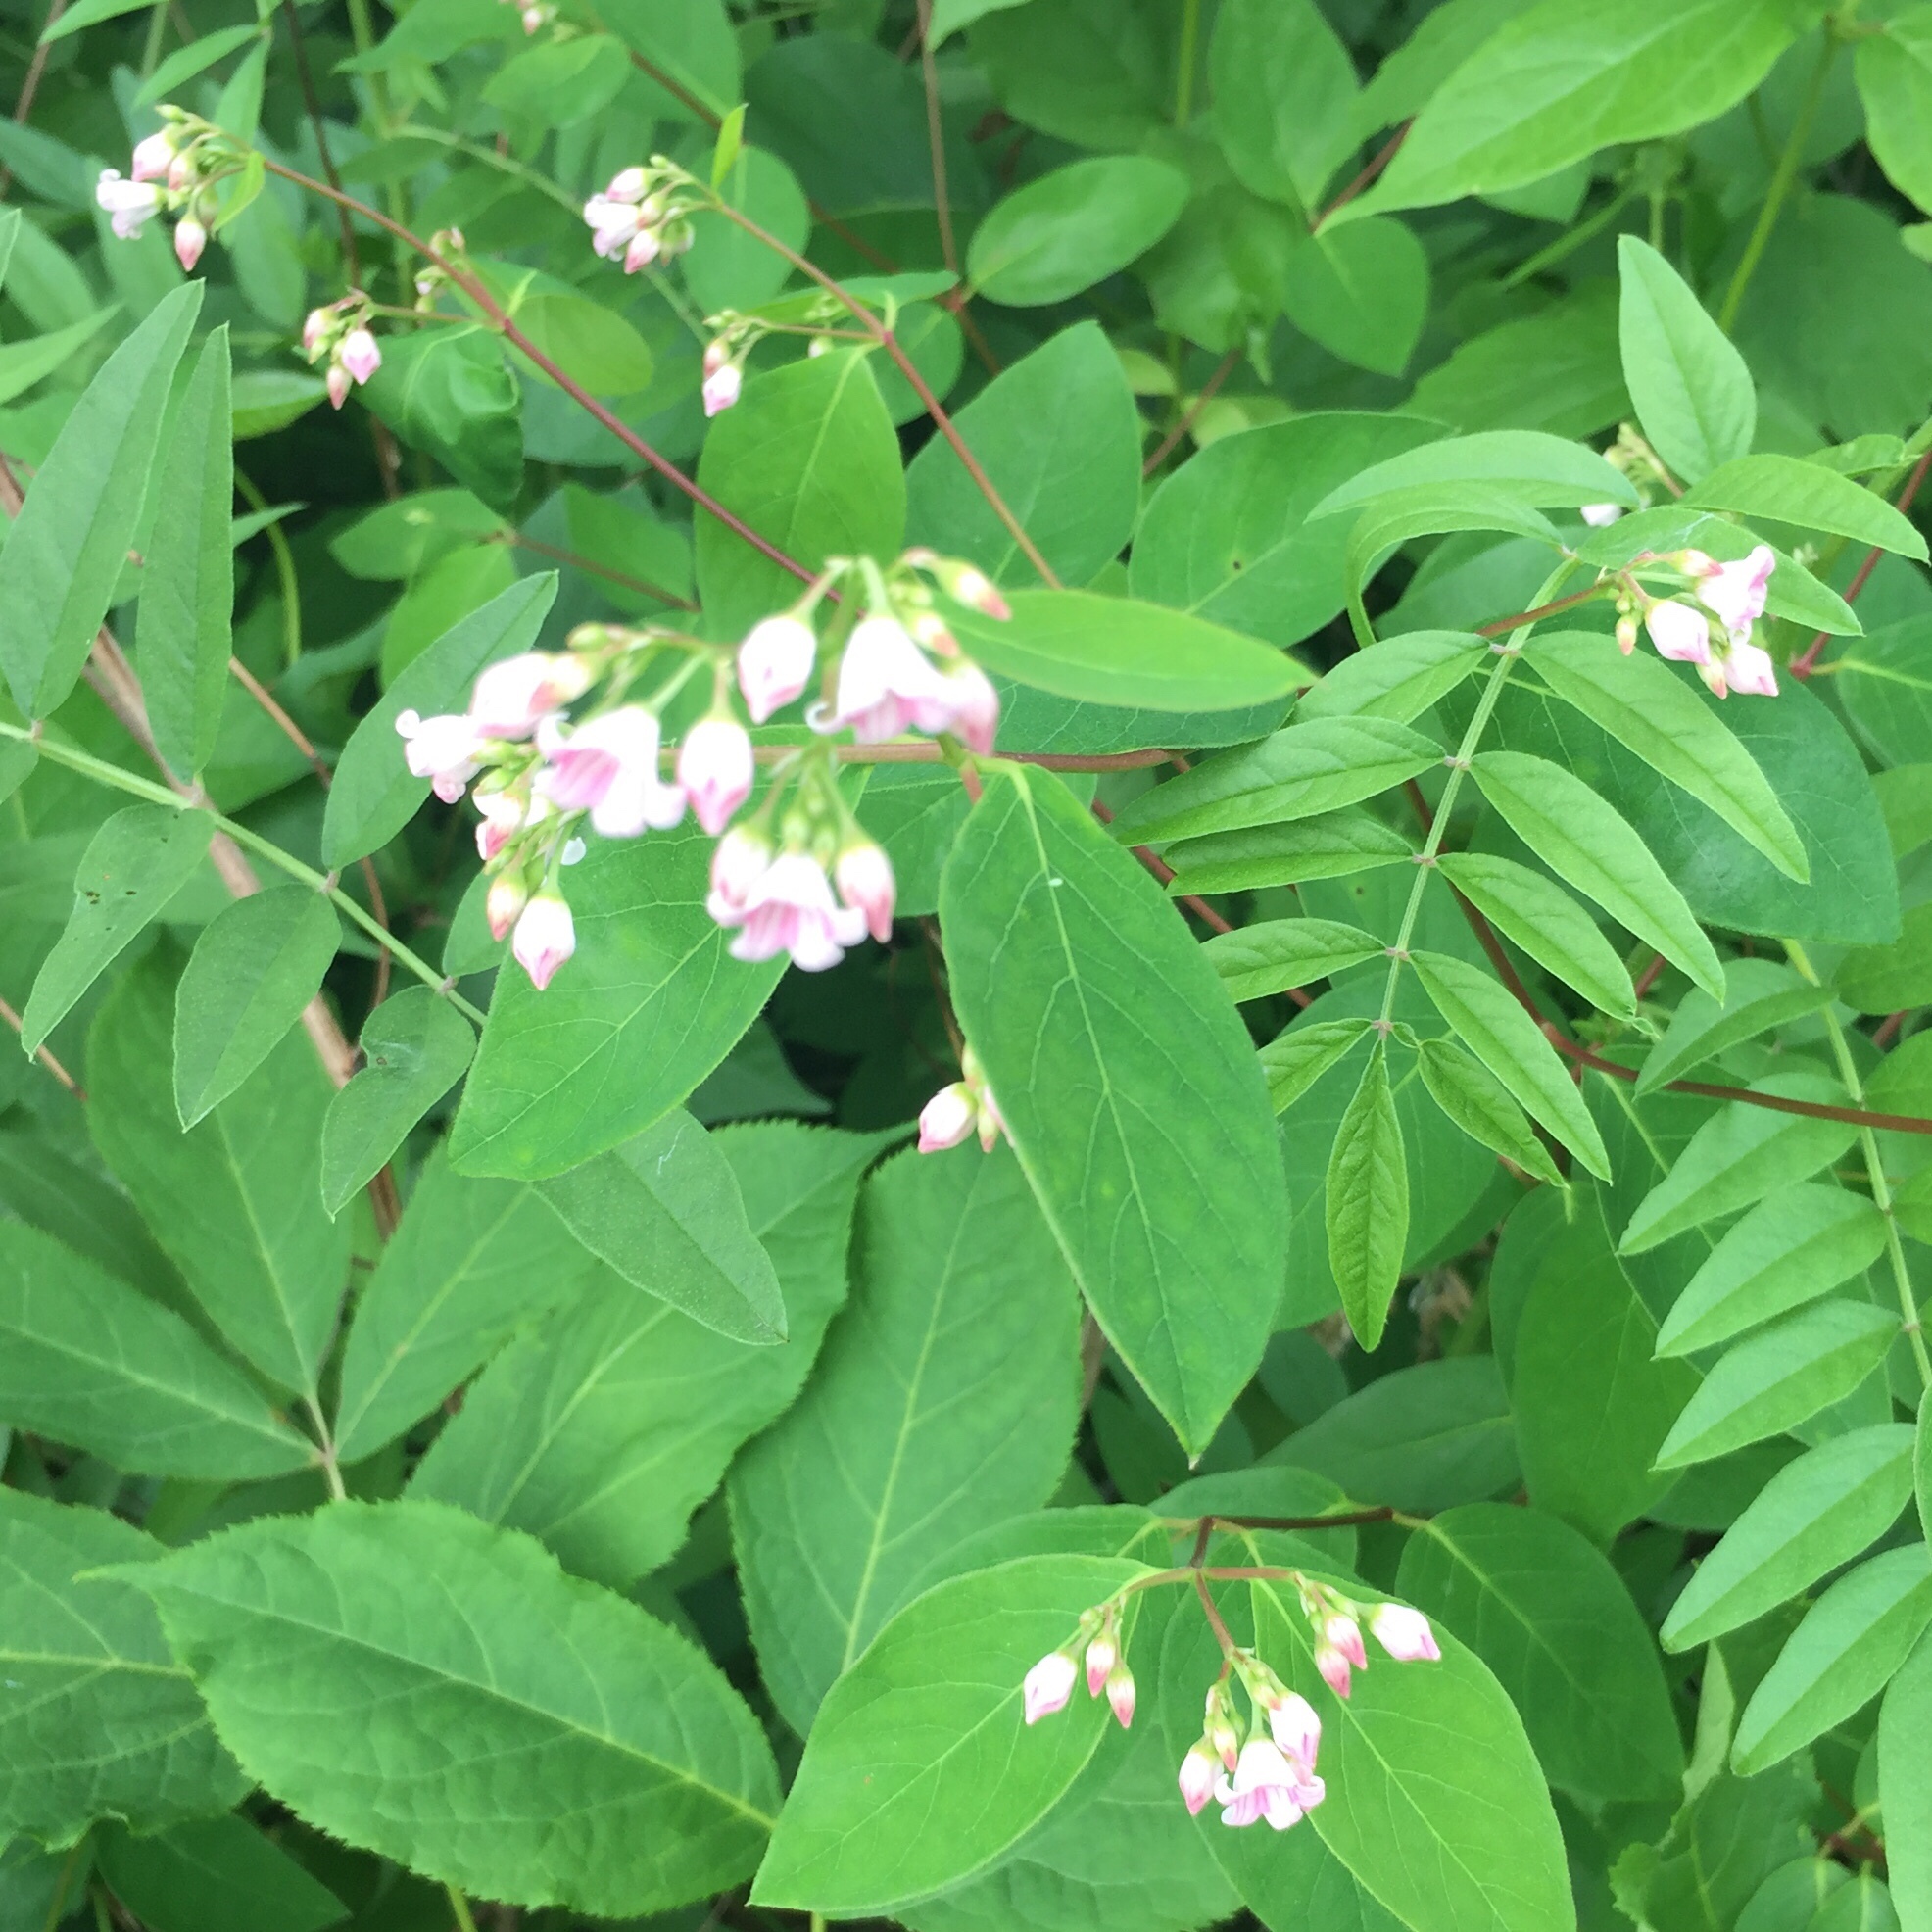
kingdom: Plantae
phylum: Tracheophyta
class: Magnoliopsida
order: Gentianales
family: Apocynaceae
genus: Apocynum
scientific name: Apocynum androsaemifolium
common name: Spreading dogbane
